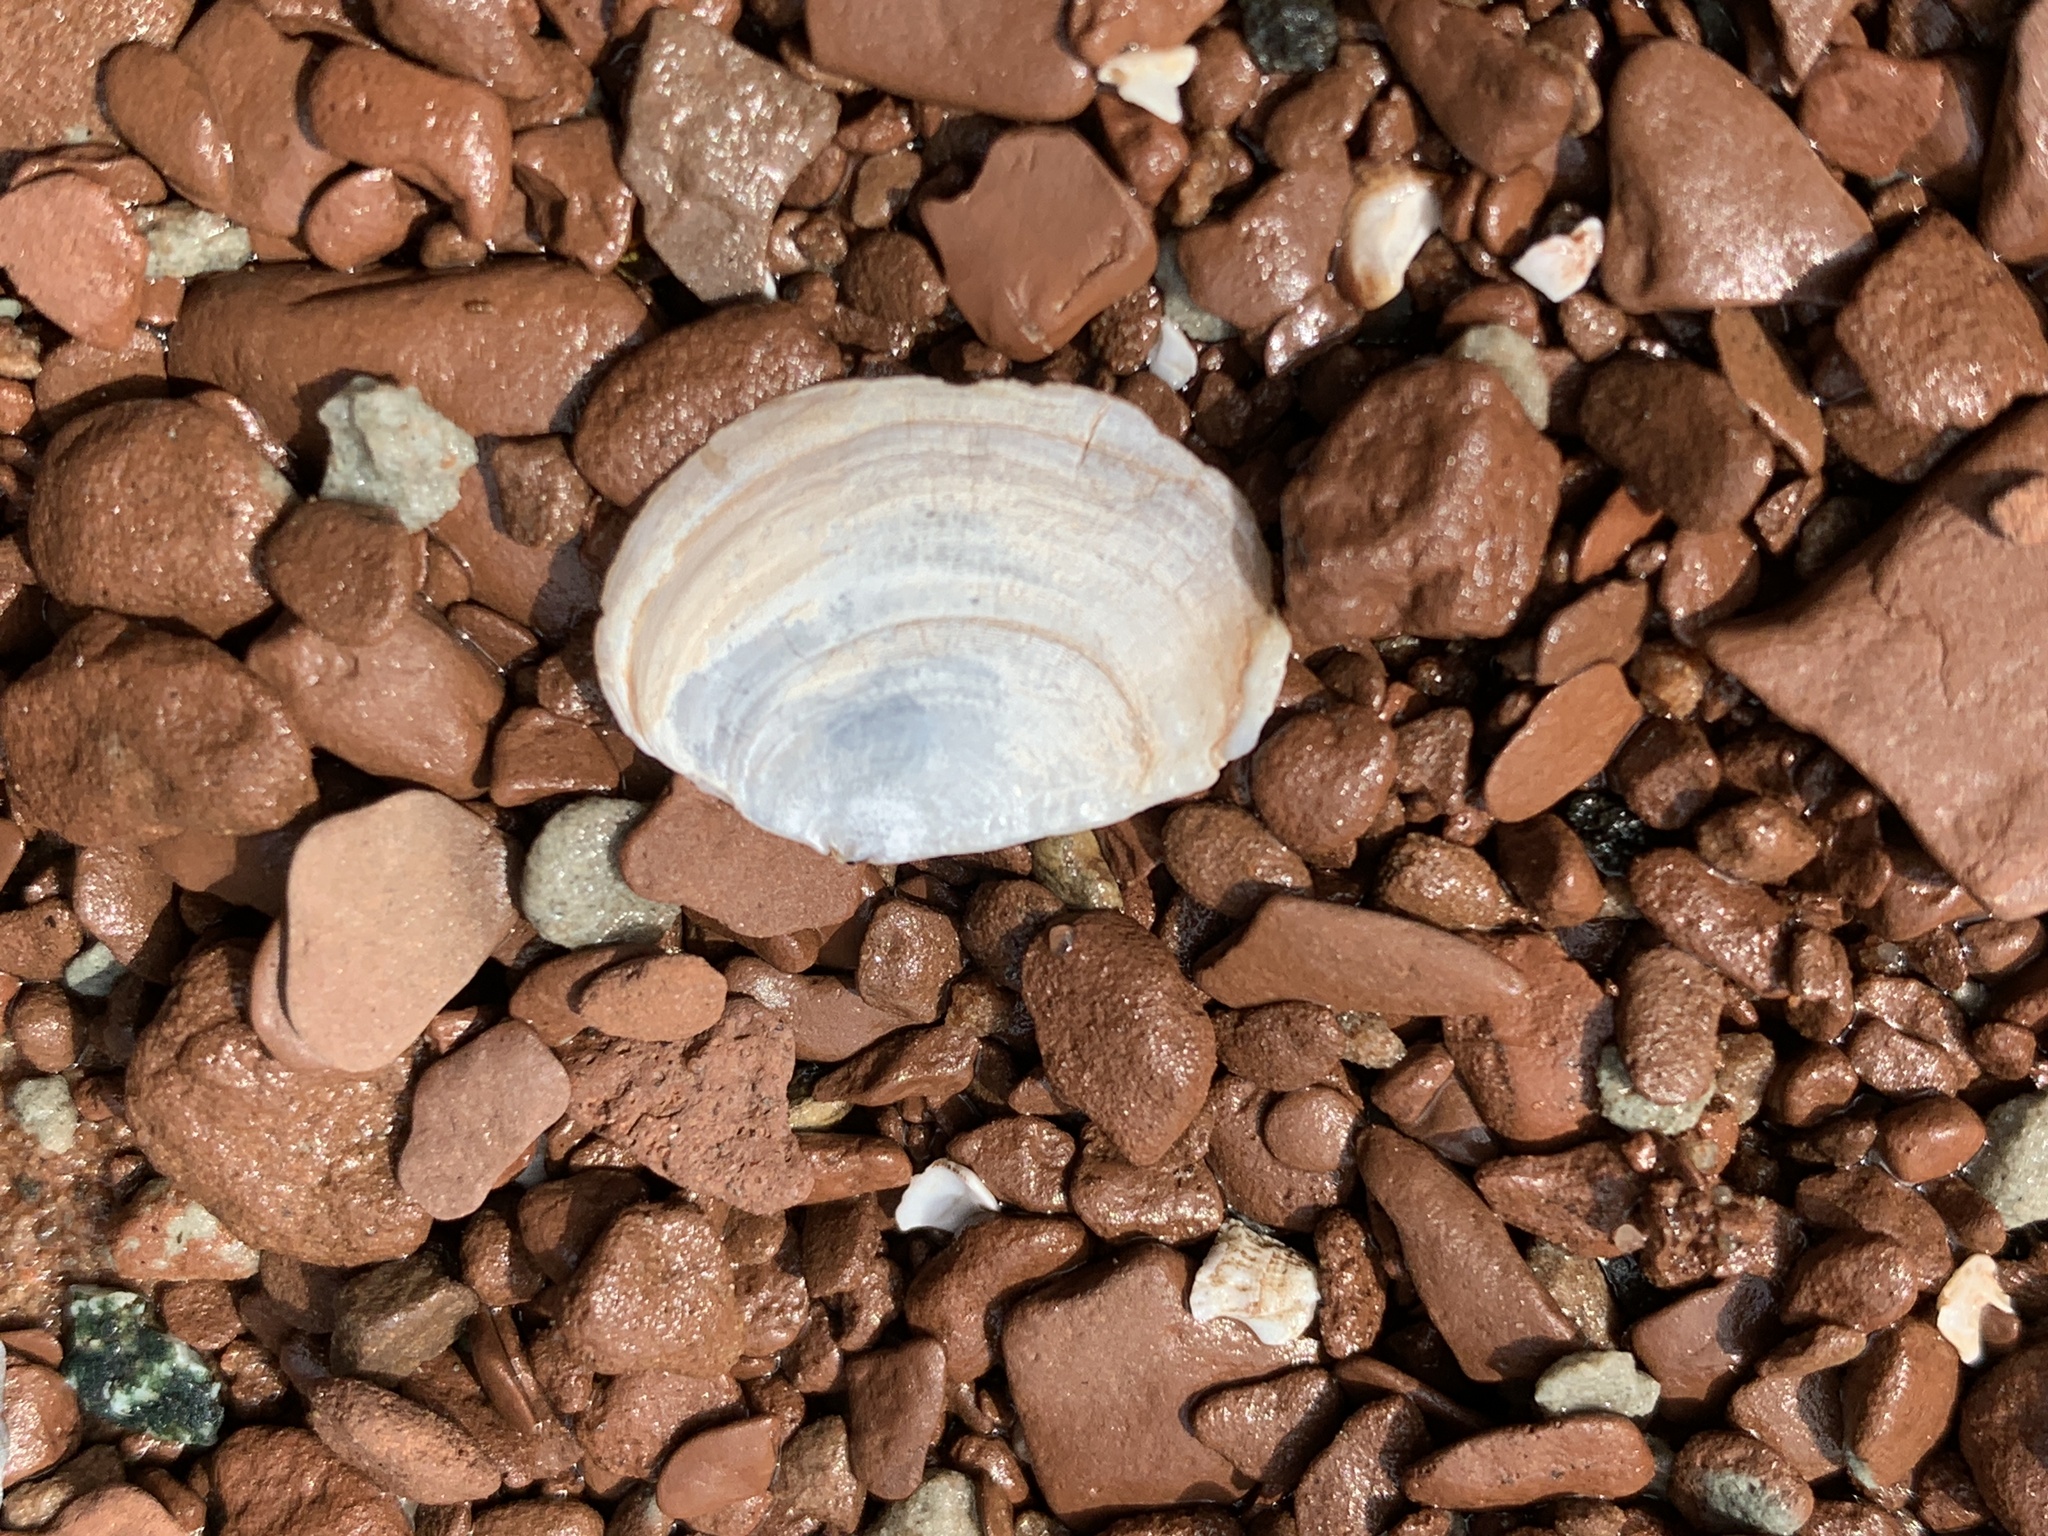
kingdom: Animalia
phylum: Mollusca
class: Bivalvia
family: Pandoridae
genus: Pandora
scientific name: Pandora gouldiana
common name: Rounded pandora
